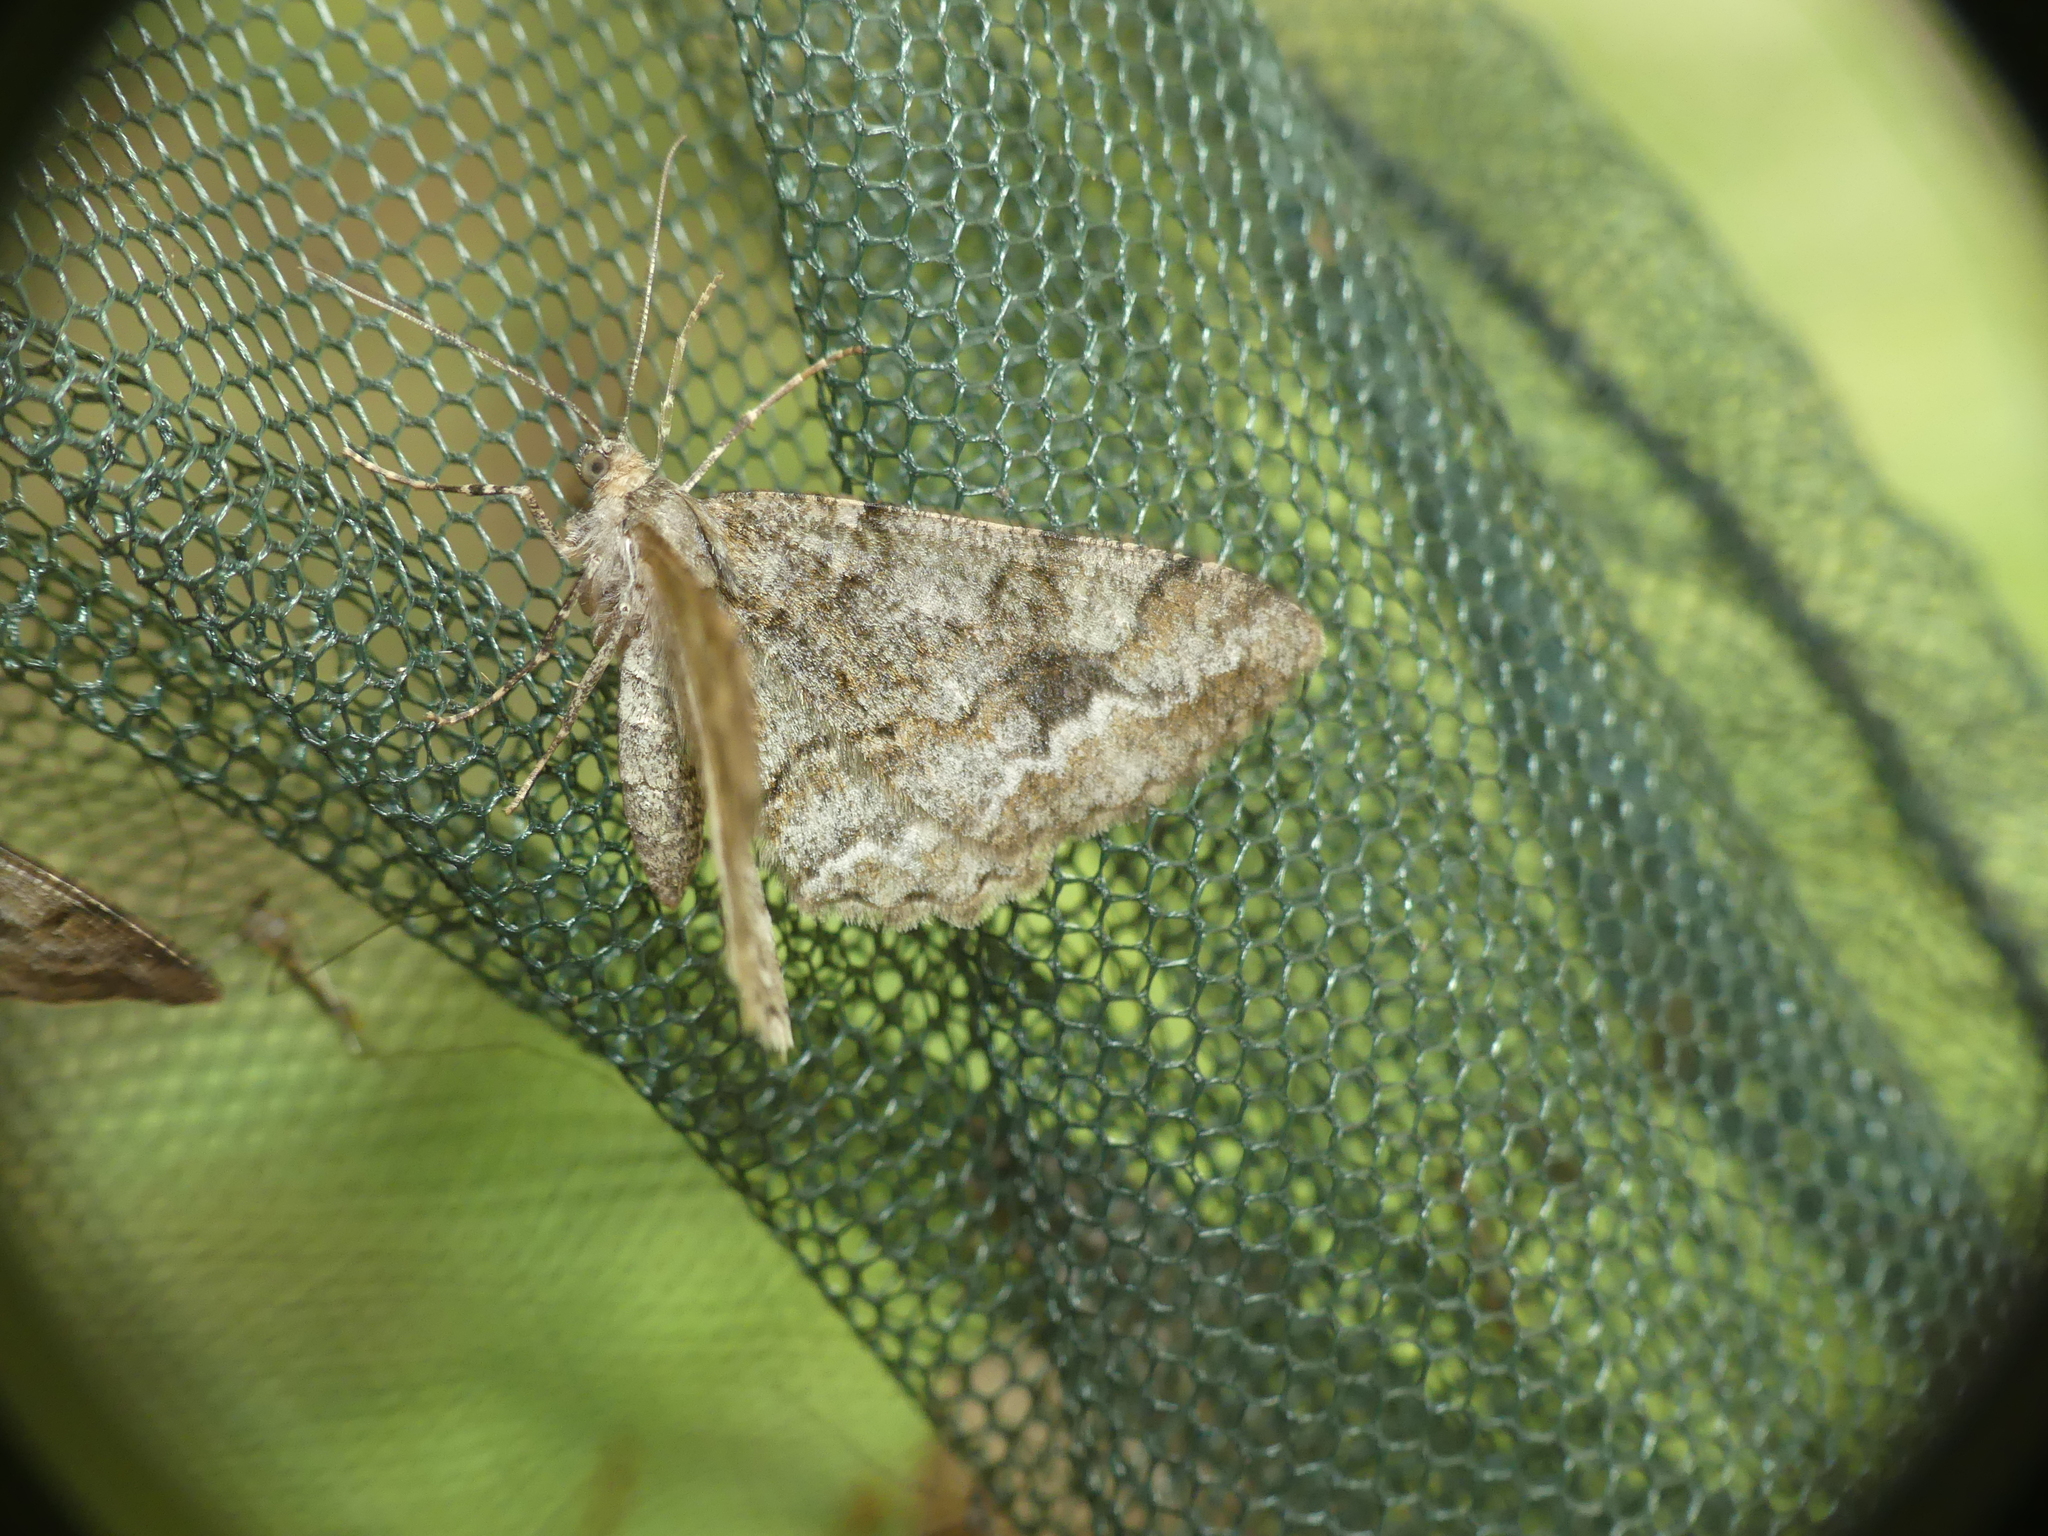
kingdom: Animalia
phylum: Arthropoda
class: Insecta
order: Lepidoptera
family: Geometridae
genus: Alcis
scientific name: Alcis repandata
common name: Mottled beauty
